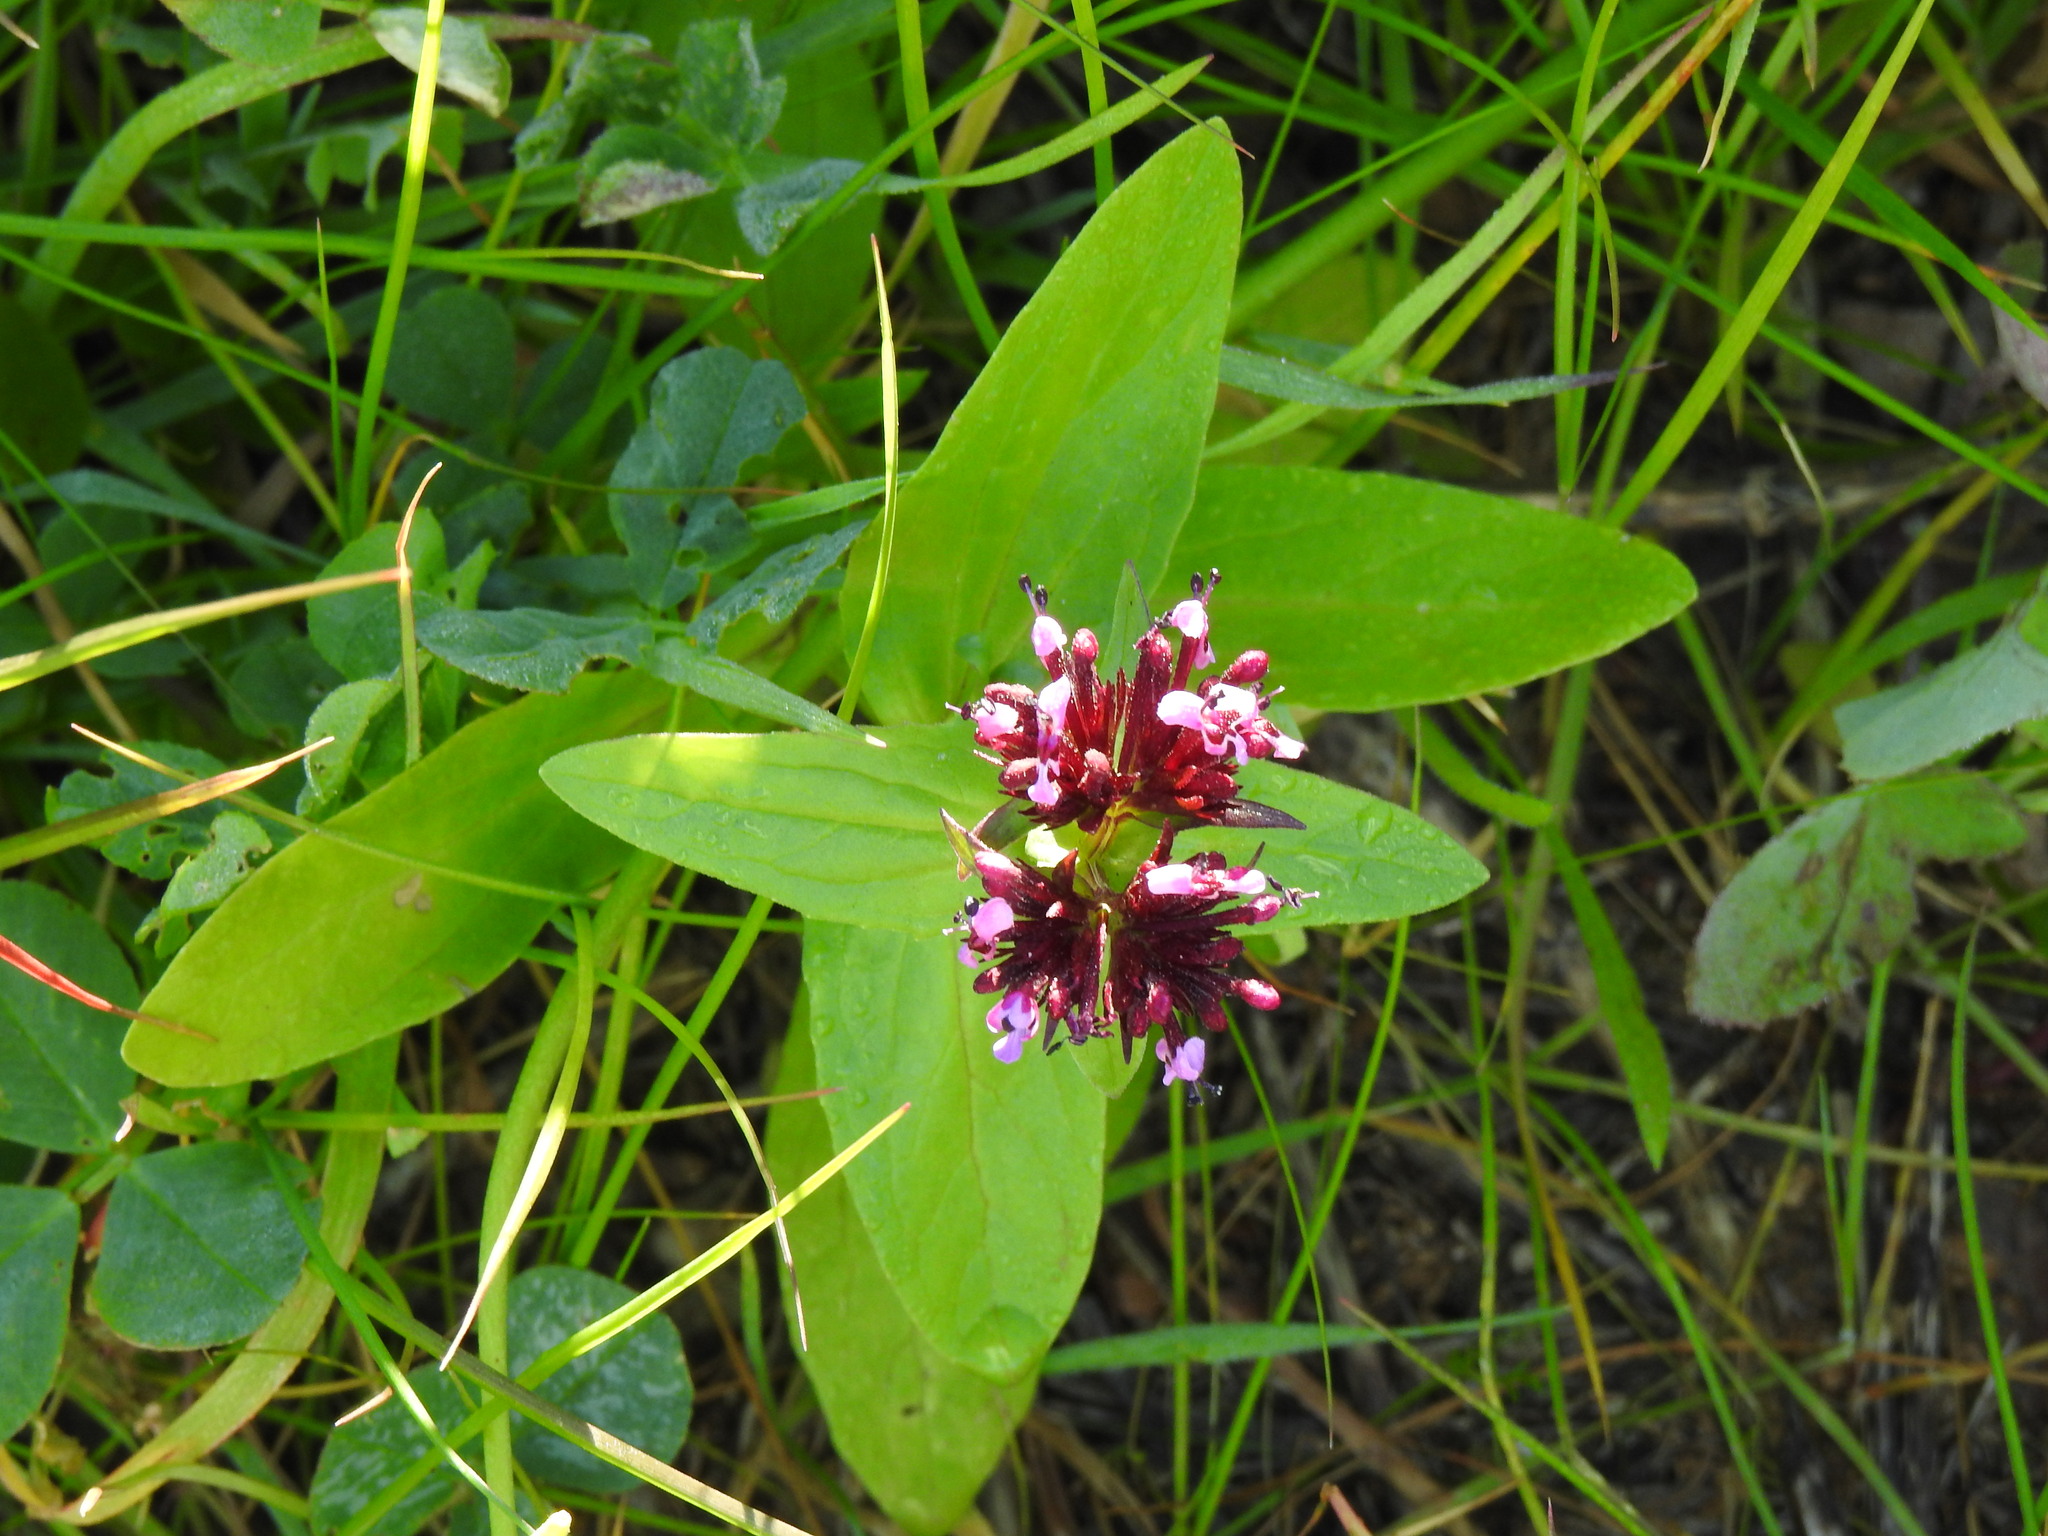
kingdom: Plantae
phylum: Tracheophyta
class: Magnoliopsida
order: Dipsacales
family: Caprifoliaceae
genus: Fedia
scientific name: Fedia cornucopiae
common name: Horn-of-plenty
